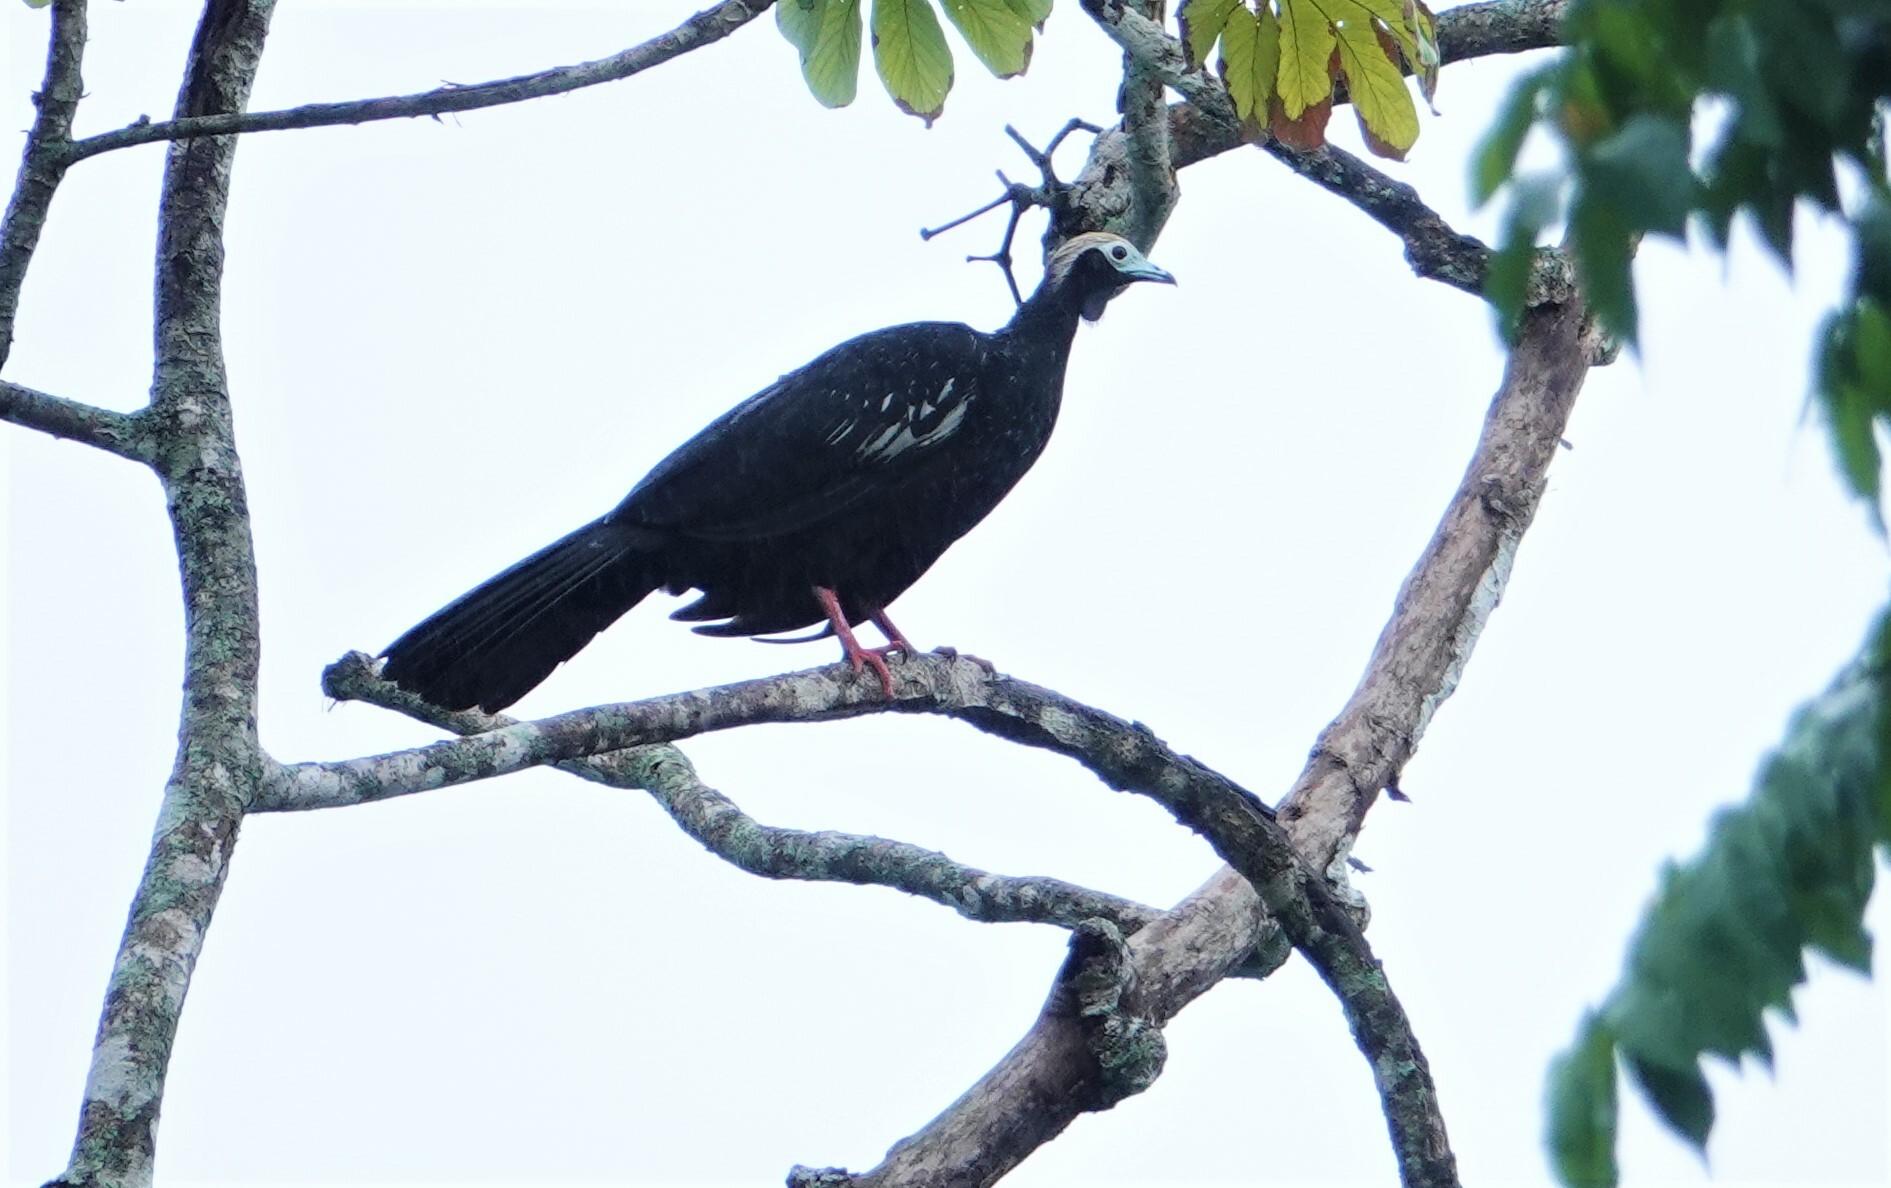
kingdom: Animalia
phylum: Chordata
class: Aves
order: Galliformes
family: Cracidae
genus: Pipile
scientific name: Pipile cumanensis
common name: Blue-throated piping-guan
